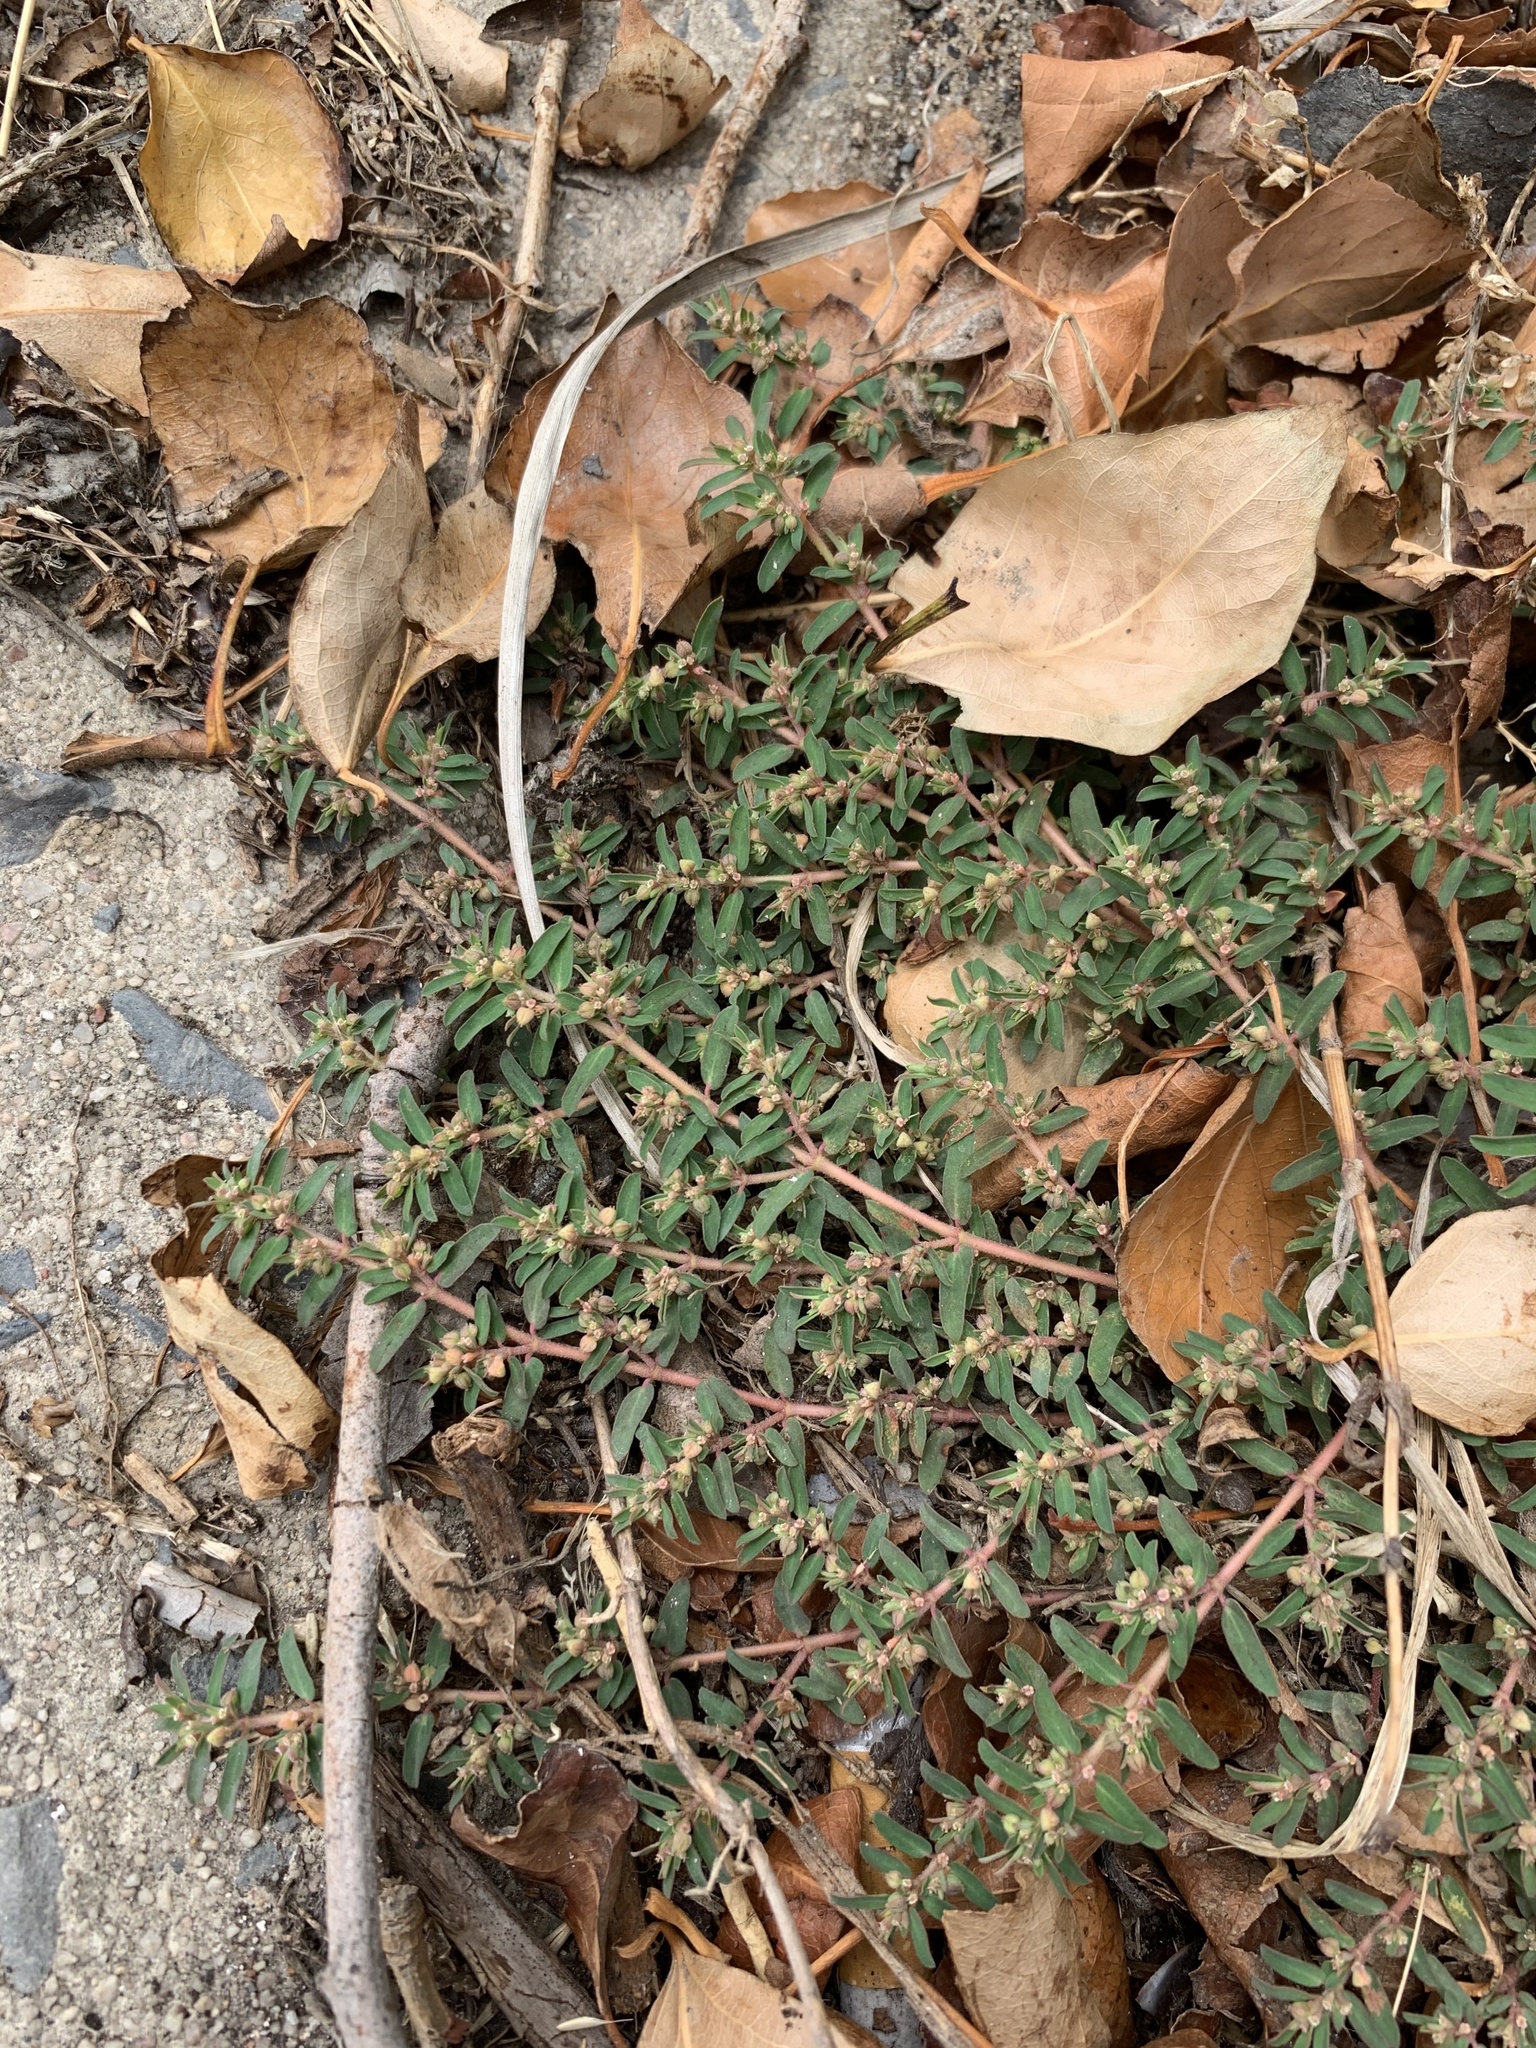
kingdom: Plantae
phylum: Tracheophyta
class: Magnoliopsida
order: Malpighiales
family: Euphorbiaceae
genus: Euphorbia
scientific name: Euphorbia maculata
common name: Spotted spurge
